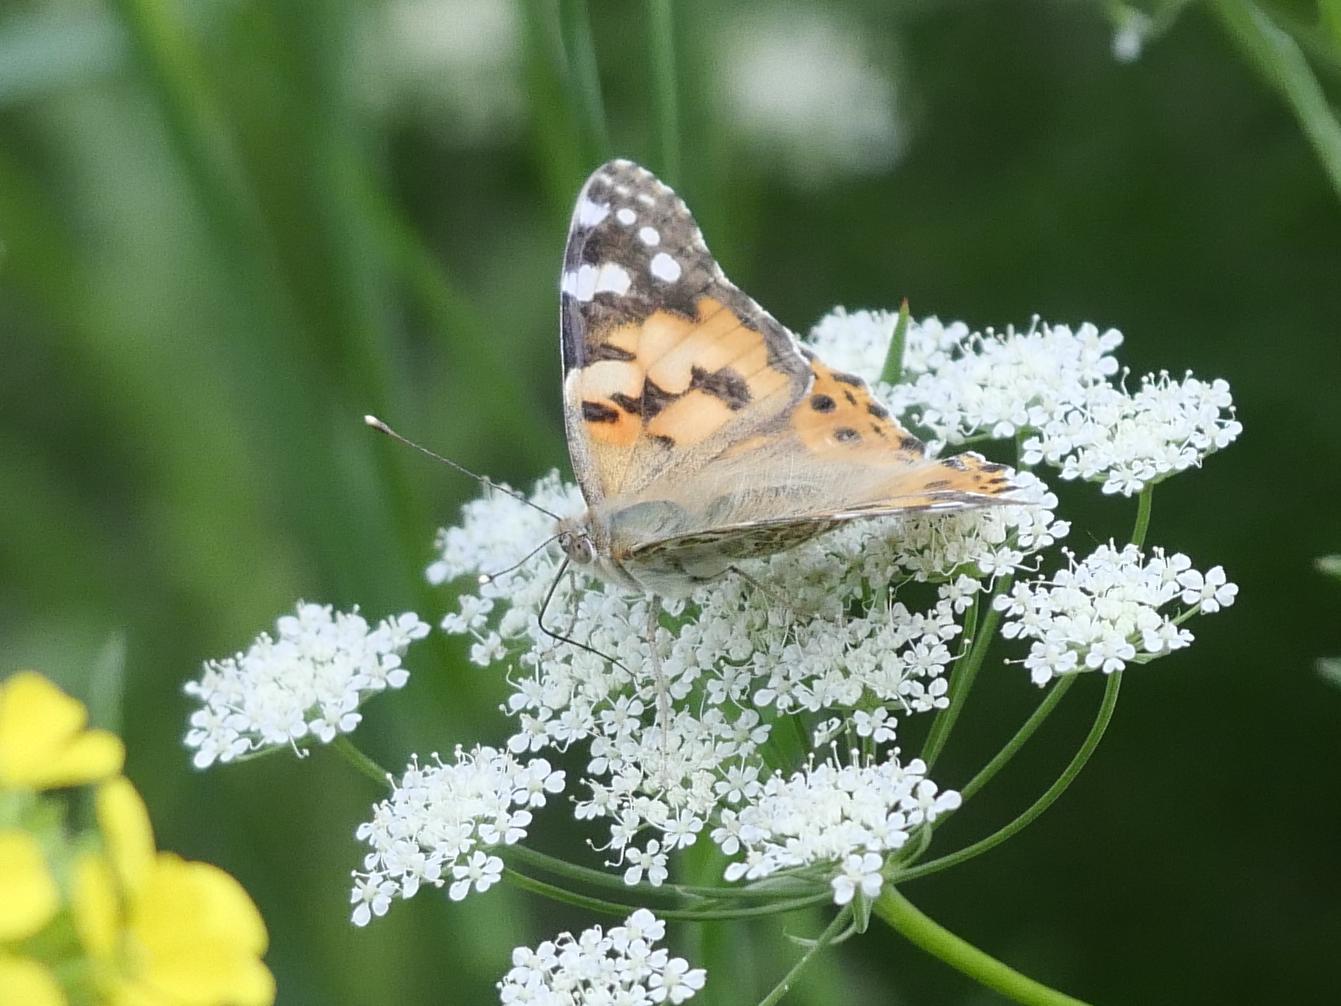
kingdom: Animalia
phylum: Arthropoda
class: Insecta
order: Lepidoptera
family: Nymphalidae
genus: Vanessa
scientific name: Vanessa cardui
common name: Painted lady
